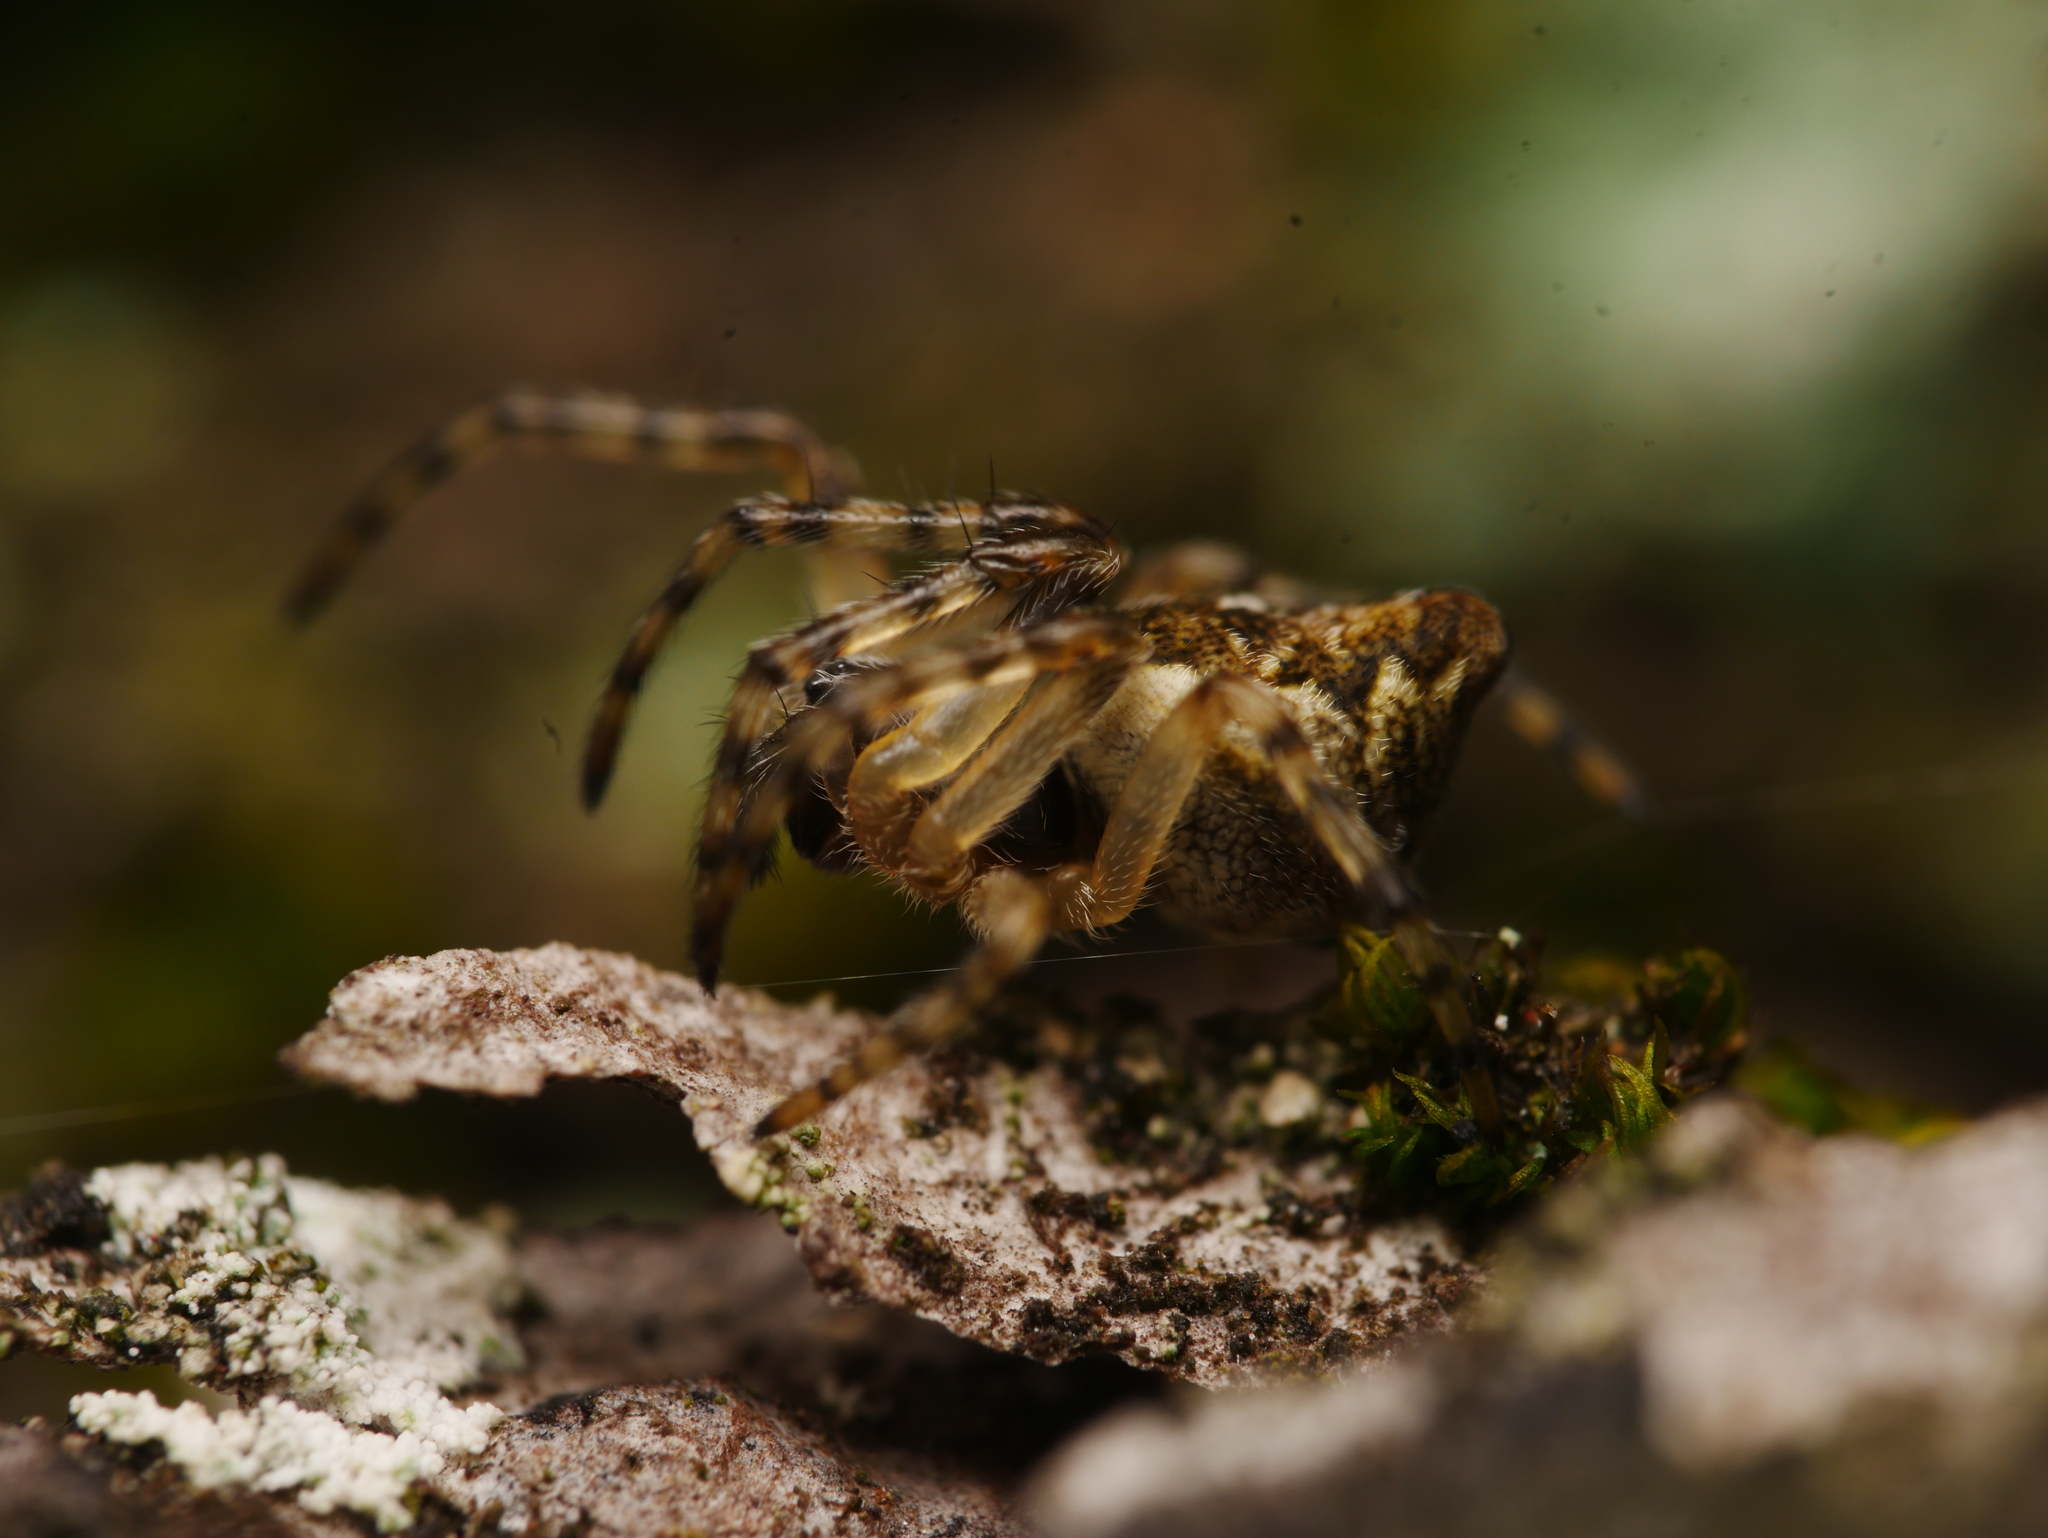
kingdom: Animalia
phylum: Arthropoda
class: Arachnida
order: Araneae
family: Araneidae
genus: Cyclosa
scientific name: Cyclosa conica
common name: Conical trashline orbweaver
